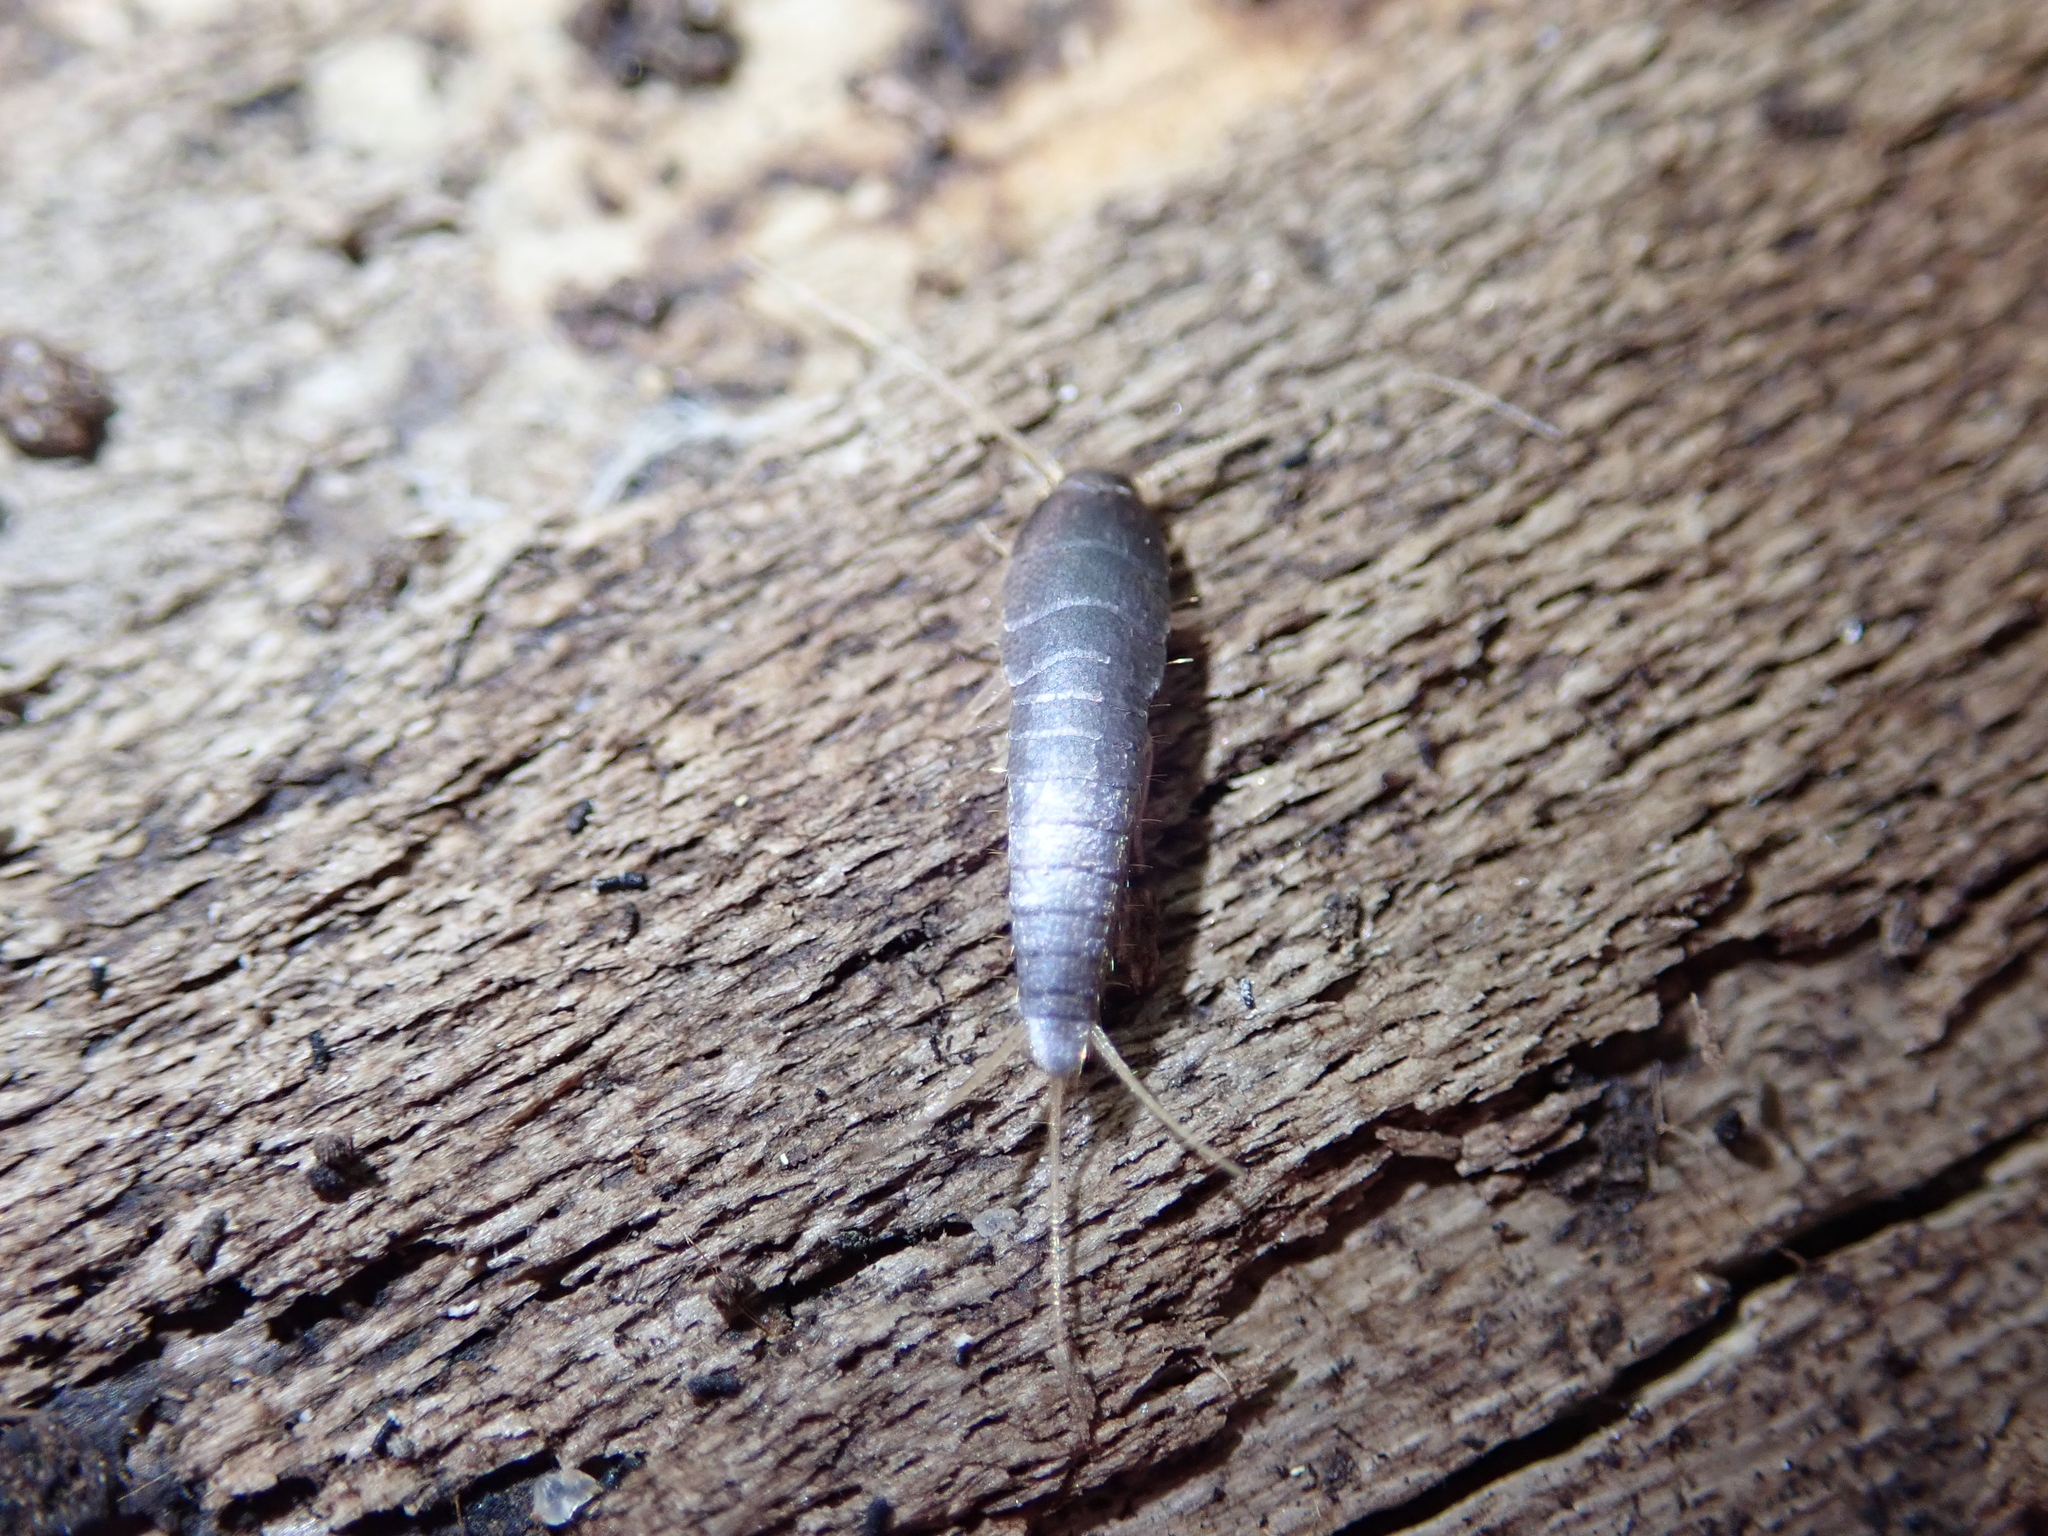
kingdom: Animalia
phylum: Arthropoda
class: Insecta
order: Zygentoma
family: Lepismatidae
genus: Lepisma
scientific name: Lepisma saccharinum
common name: Silverfish
